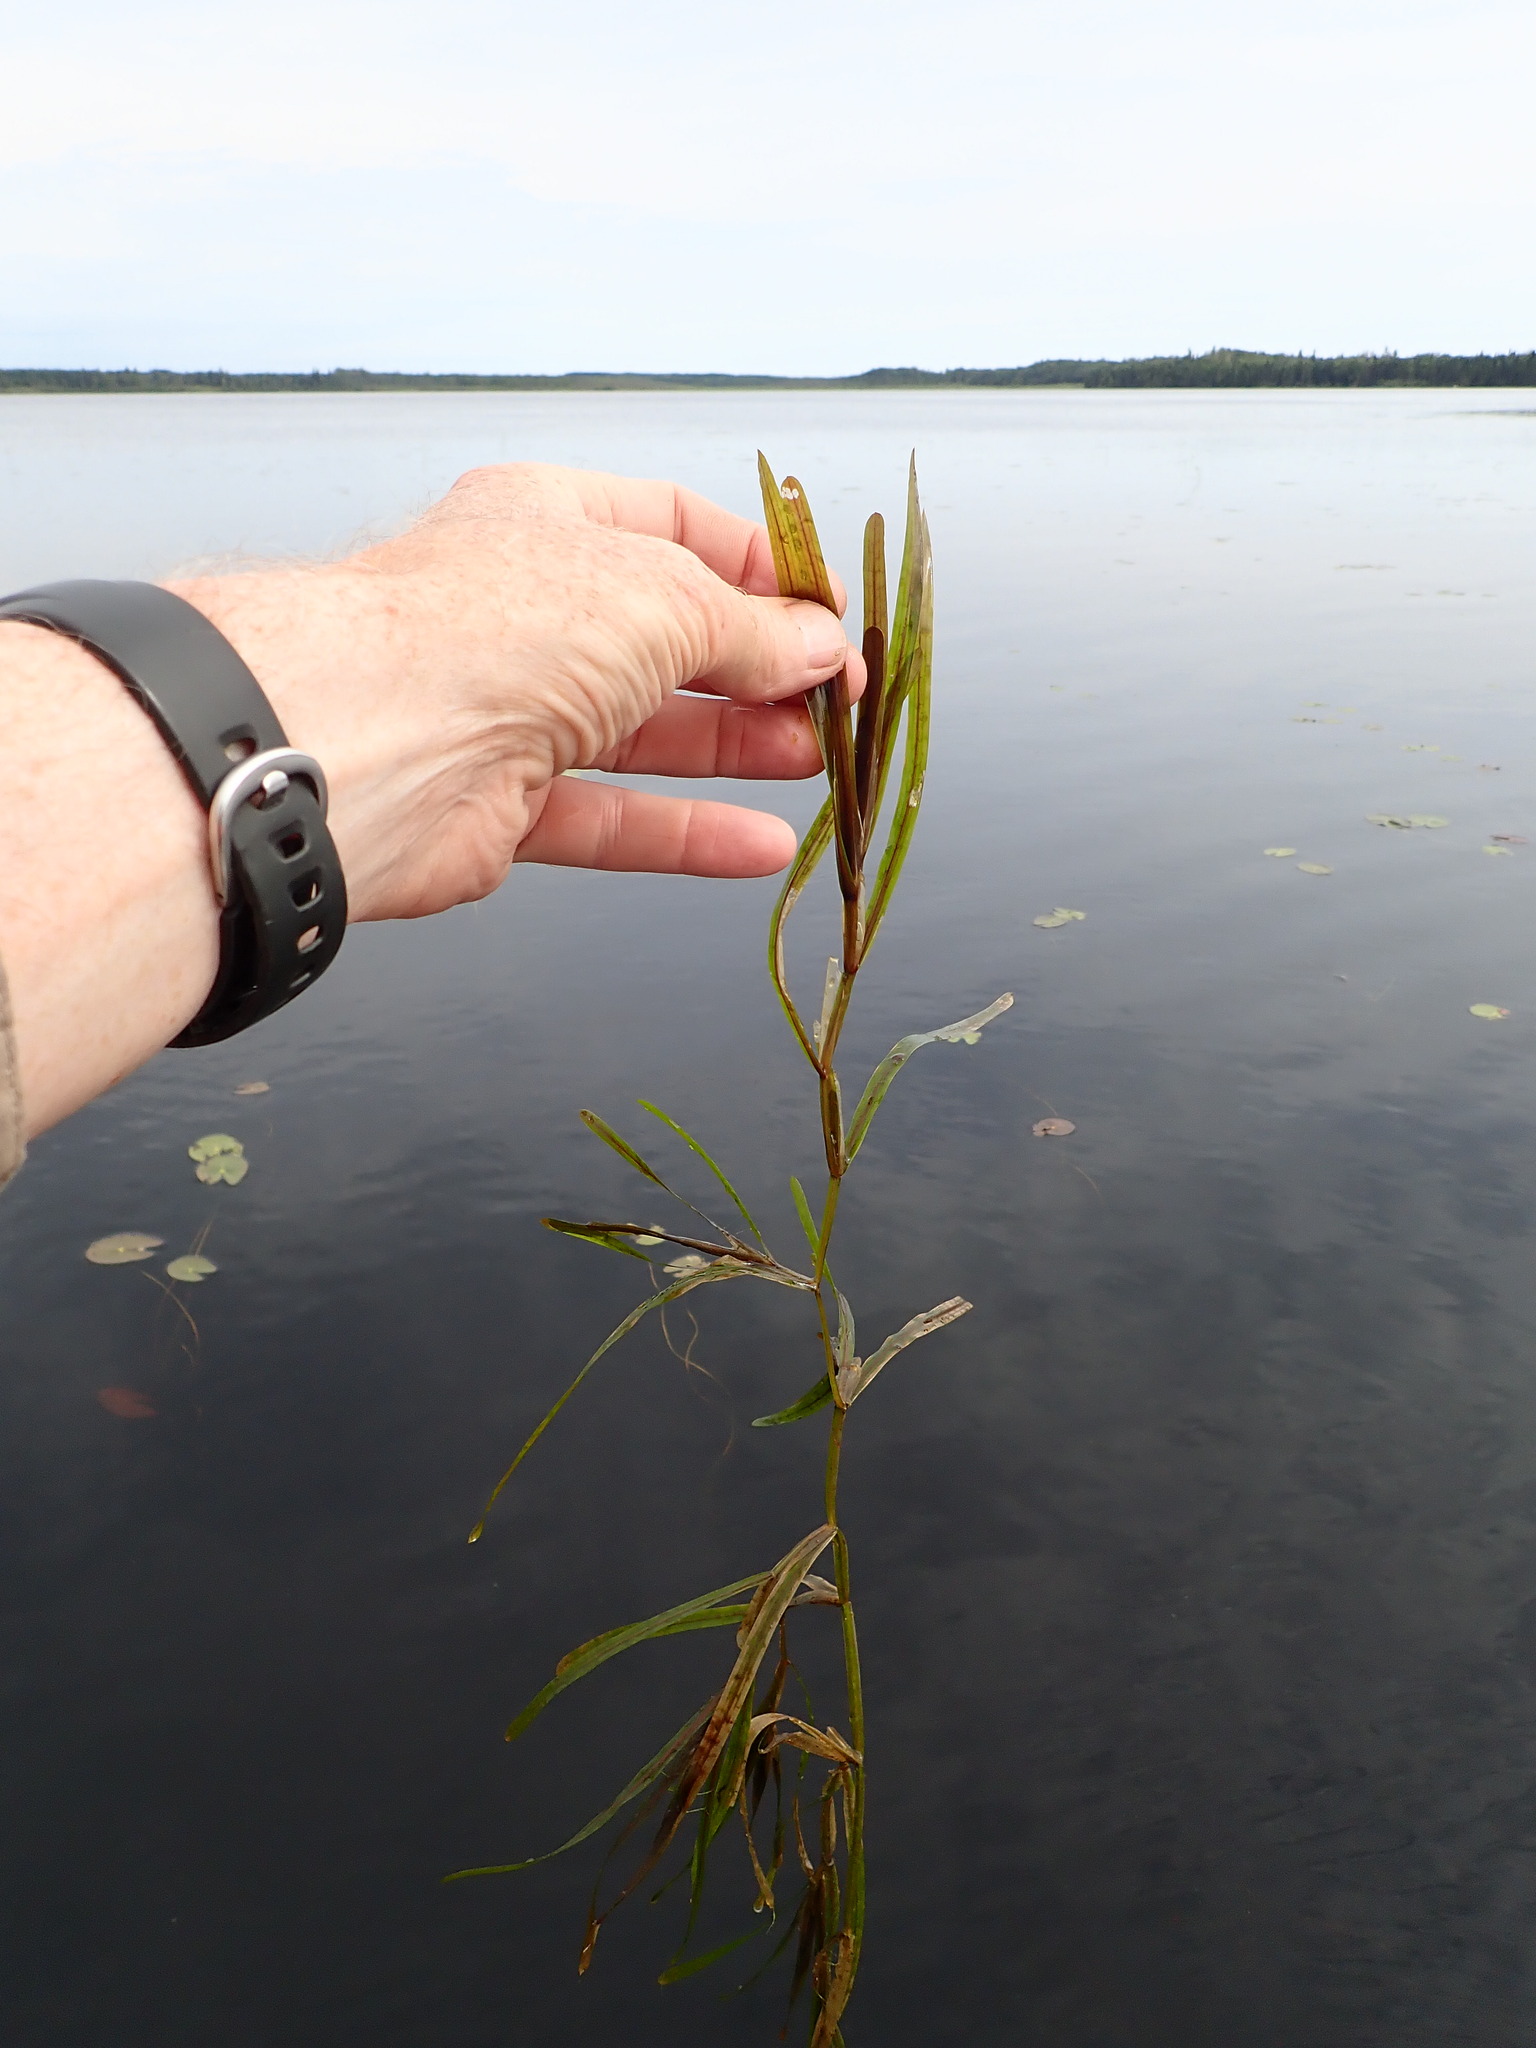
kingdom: Plantae
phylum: Tracheophyta
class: Liliopsida
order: Alismatales
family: Potamogetonaceae
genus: Potamogeton
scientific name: Potamogeton zosteriformis
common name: Eelgrass pondweed
